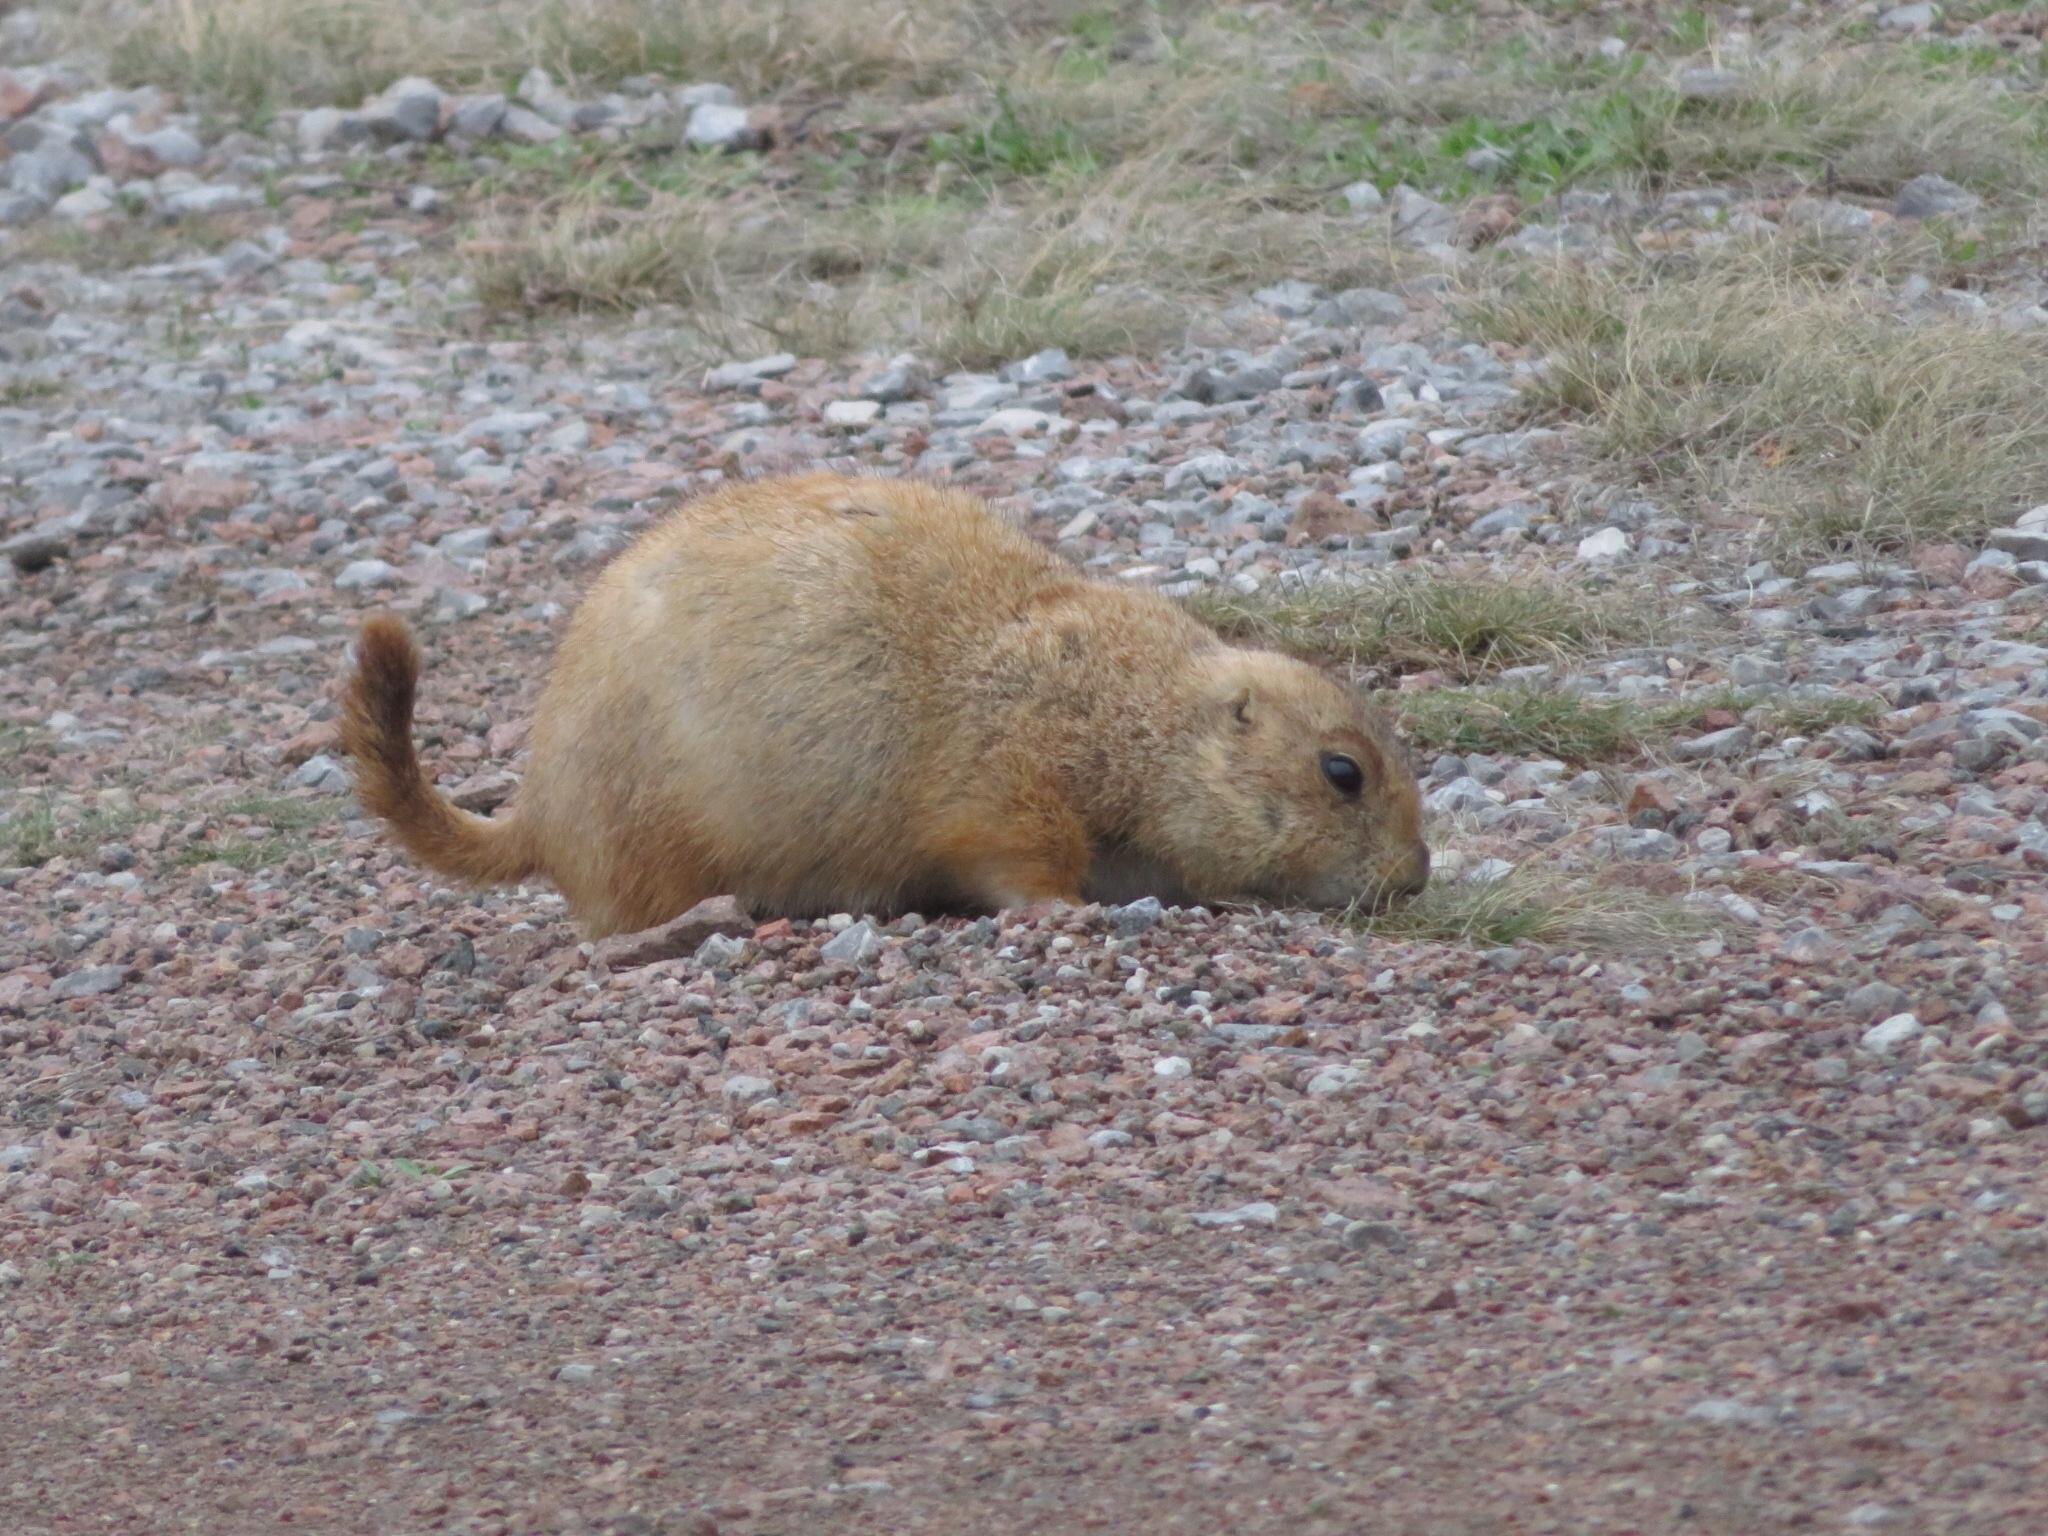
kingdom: Animalia
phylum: Chordata
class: Mammalia
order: Rodentia
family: Sciuridae
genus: Cynomys
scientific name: Cynomys ludovicianus
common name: Black-tailed prairie dog
